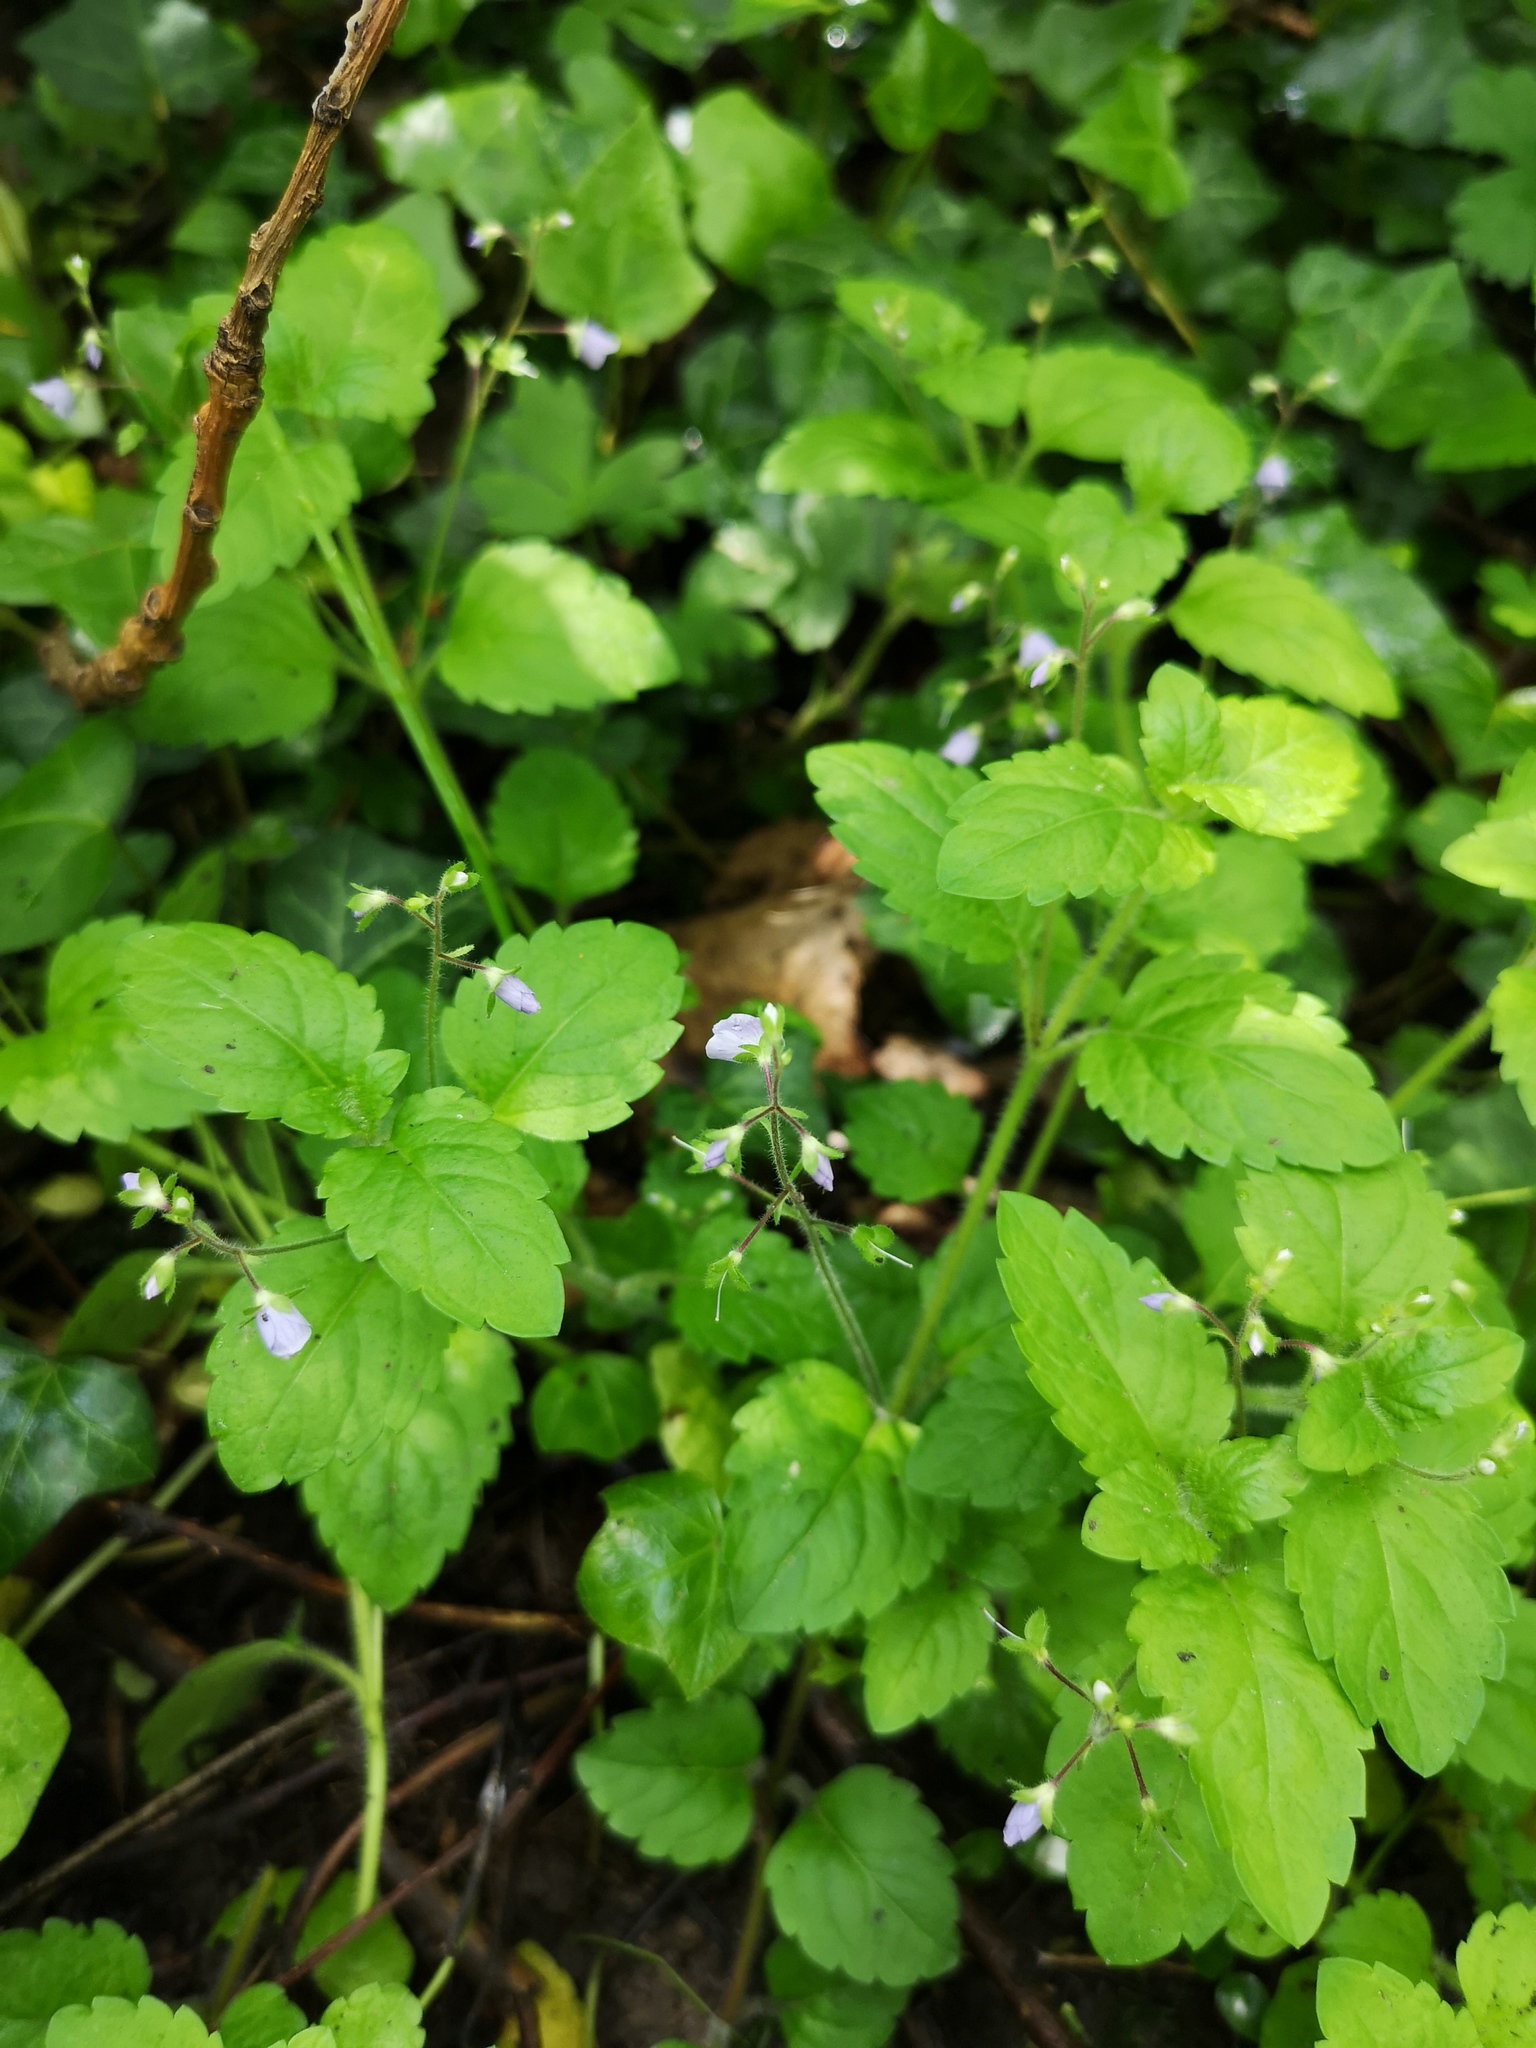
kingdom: Plantae
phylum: Tracheophyta
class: Magnoliopsida
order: Lamiales
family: Plantaginaceae
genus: Veronica
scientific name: Veronica montana
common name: Wood speedwell
